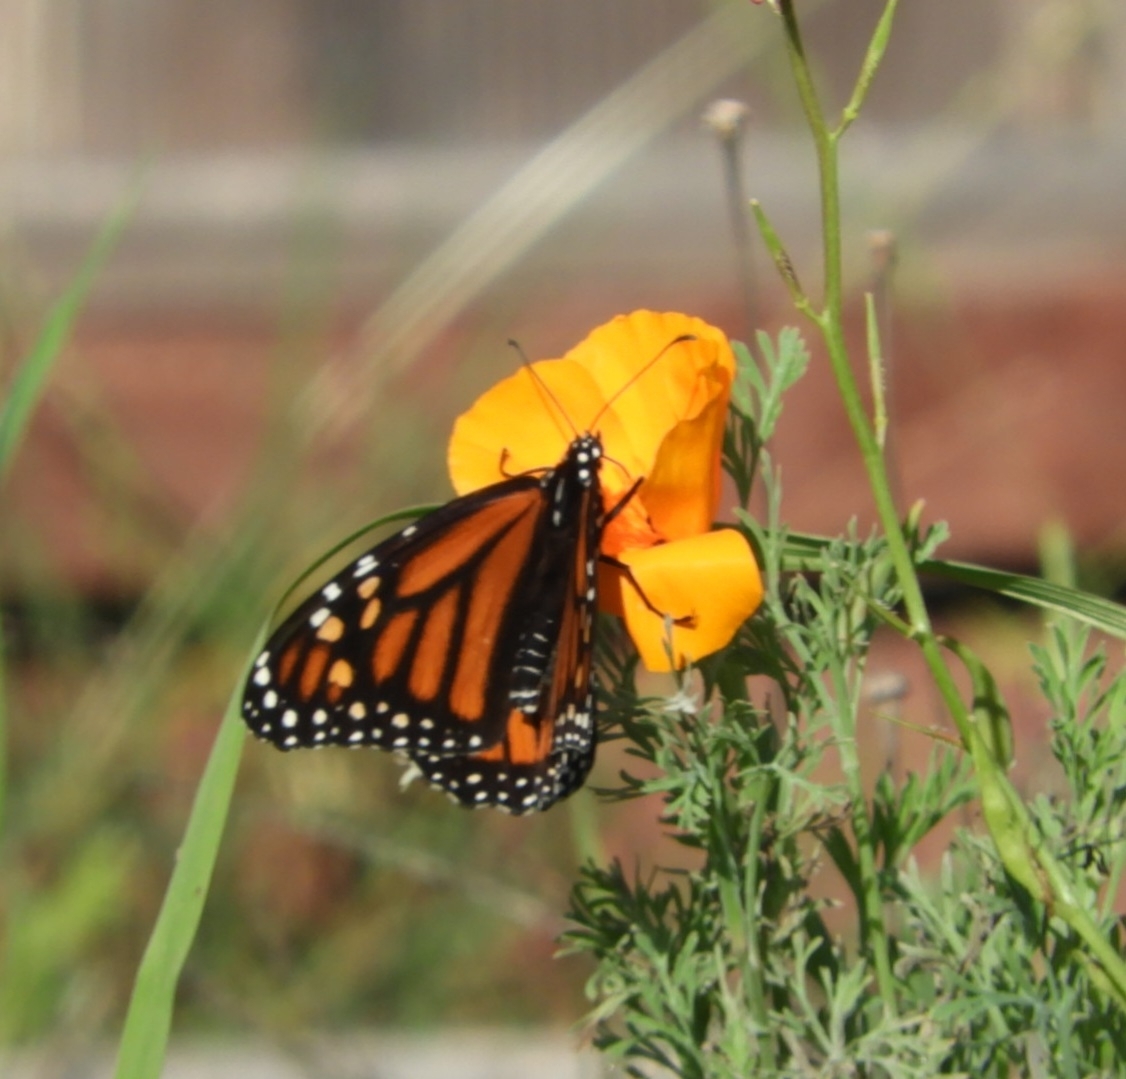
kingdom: Animalia
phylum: Arthropoda
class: Insecta
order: Lepidoptera
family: Nymphalidae
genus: Danaus
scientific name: Danaus plexippus
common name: Monarch
